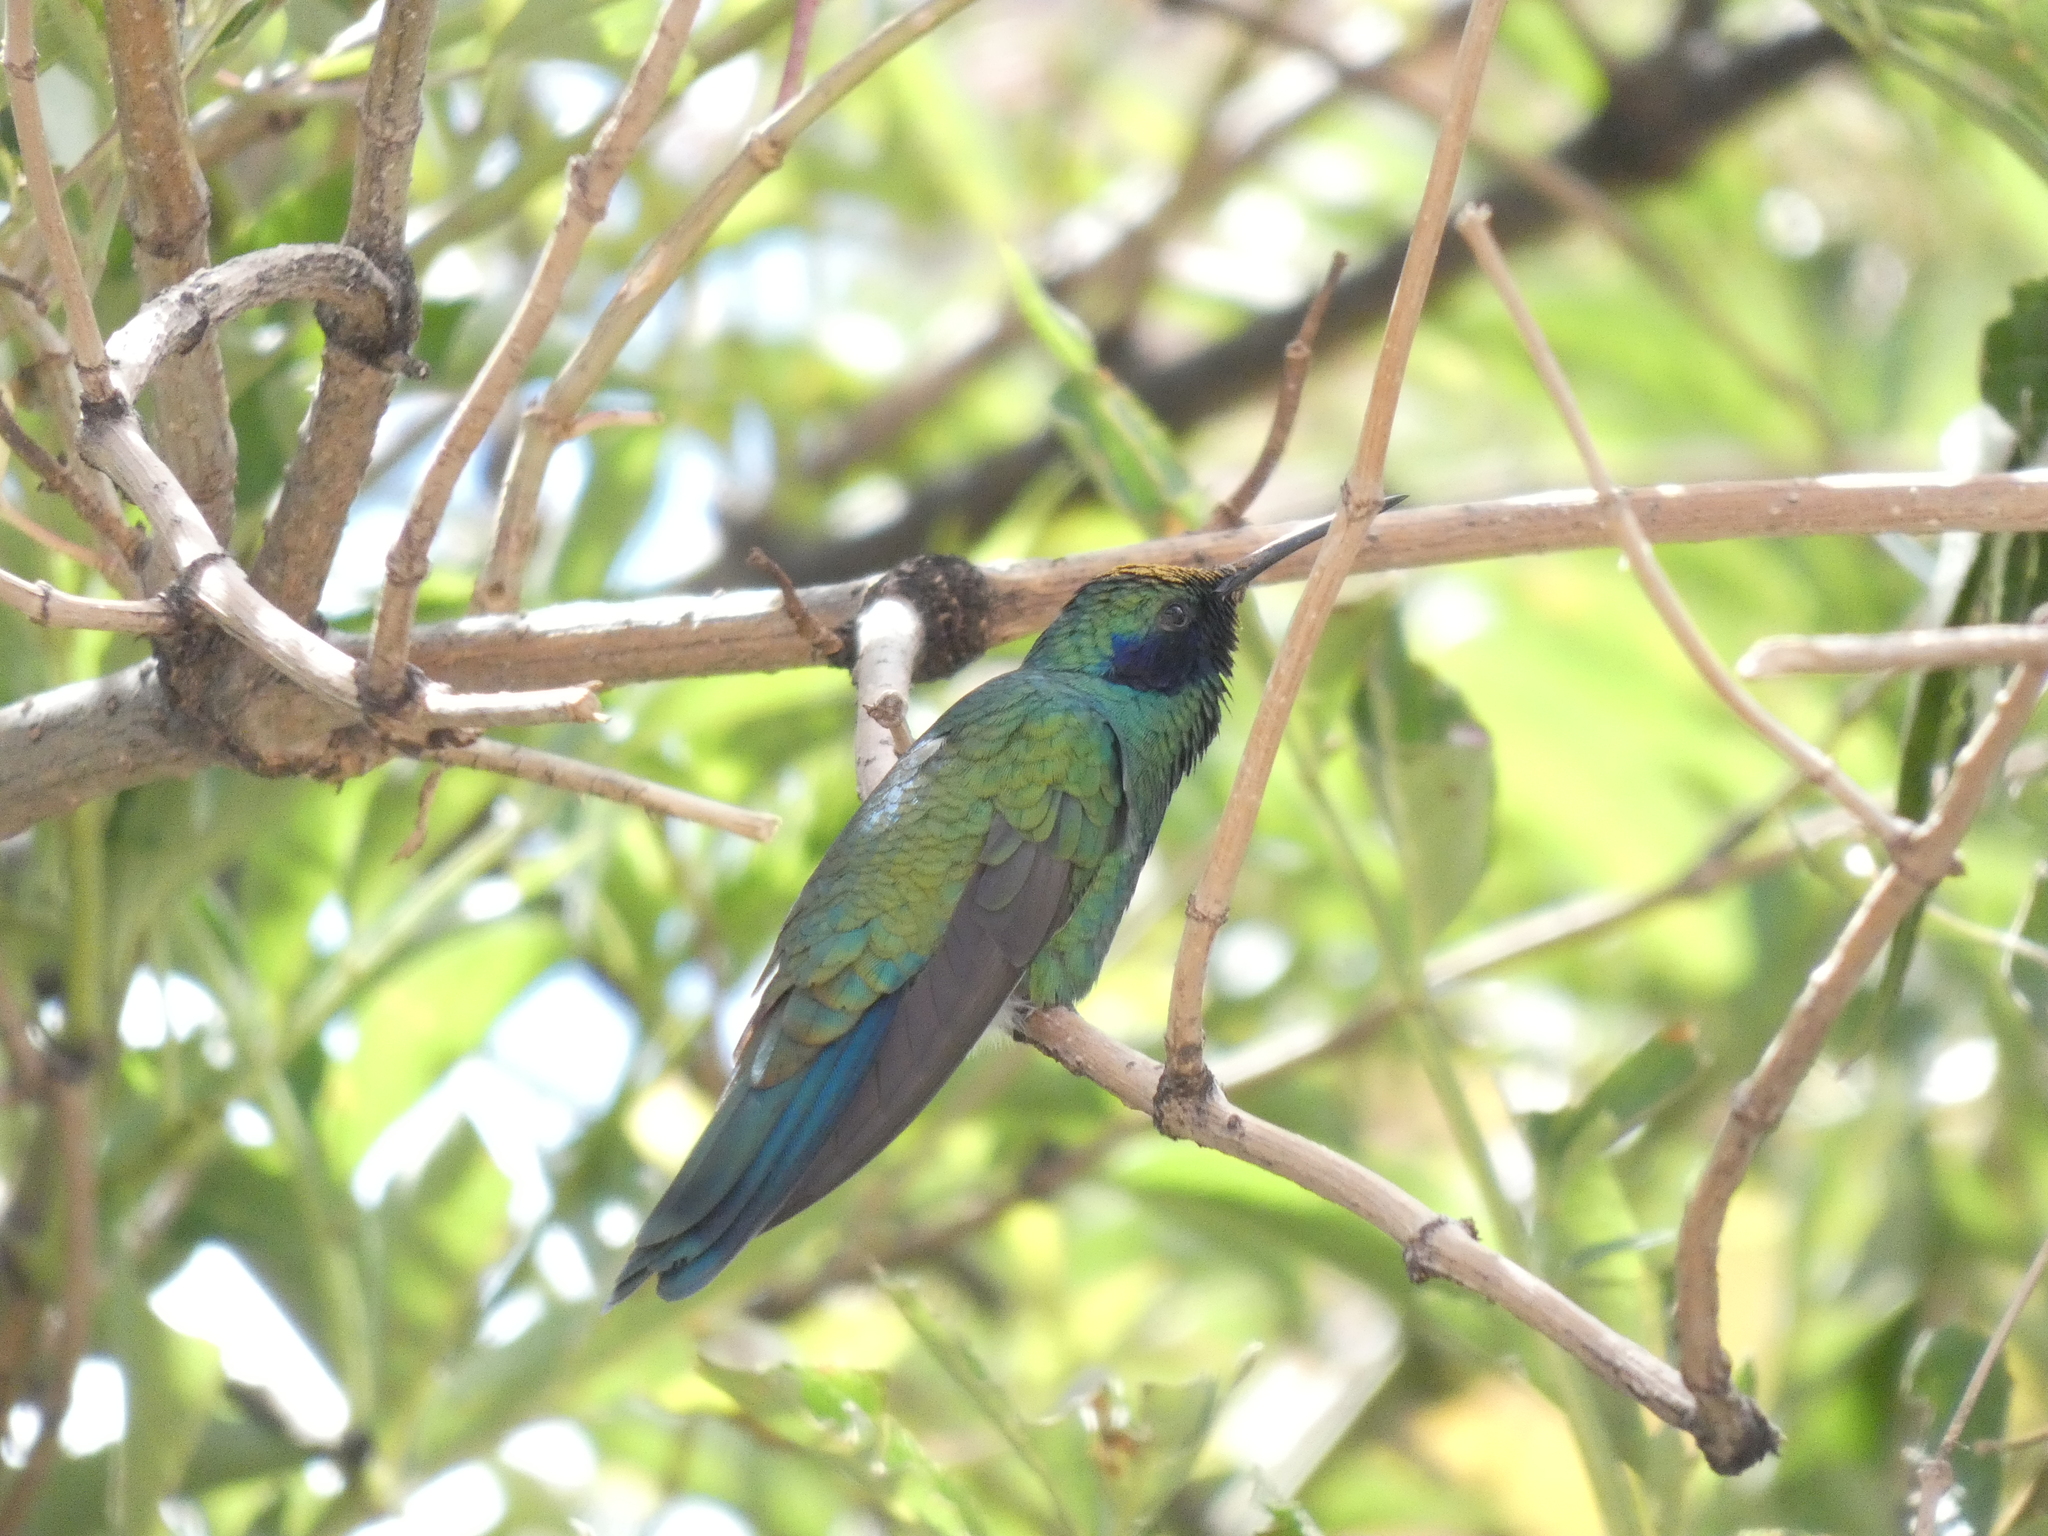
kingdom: Animalia
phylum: Chordata
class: Aves
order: Apodiformes
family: Trochilidae
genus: Colibri
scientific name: Colibri coruscans
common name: Sparkling violetear
